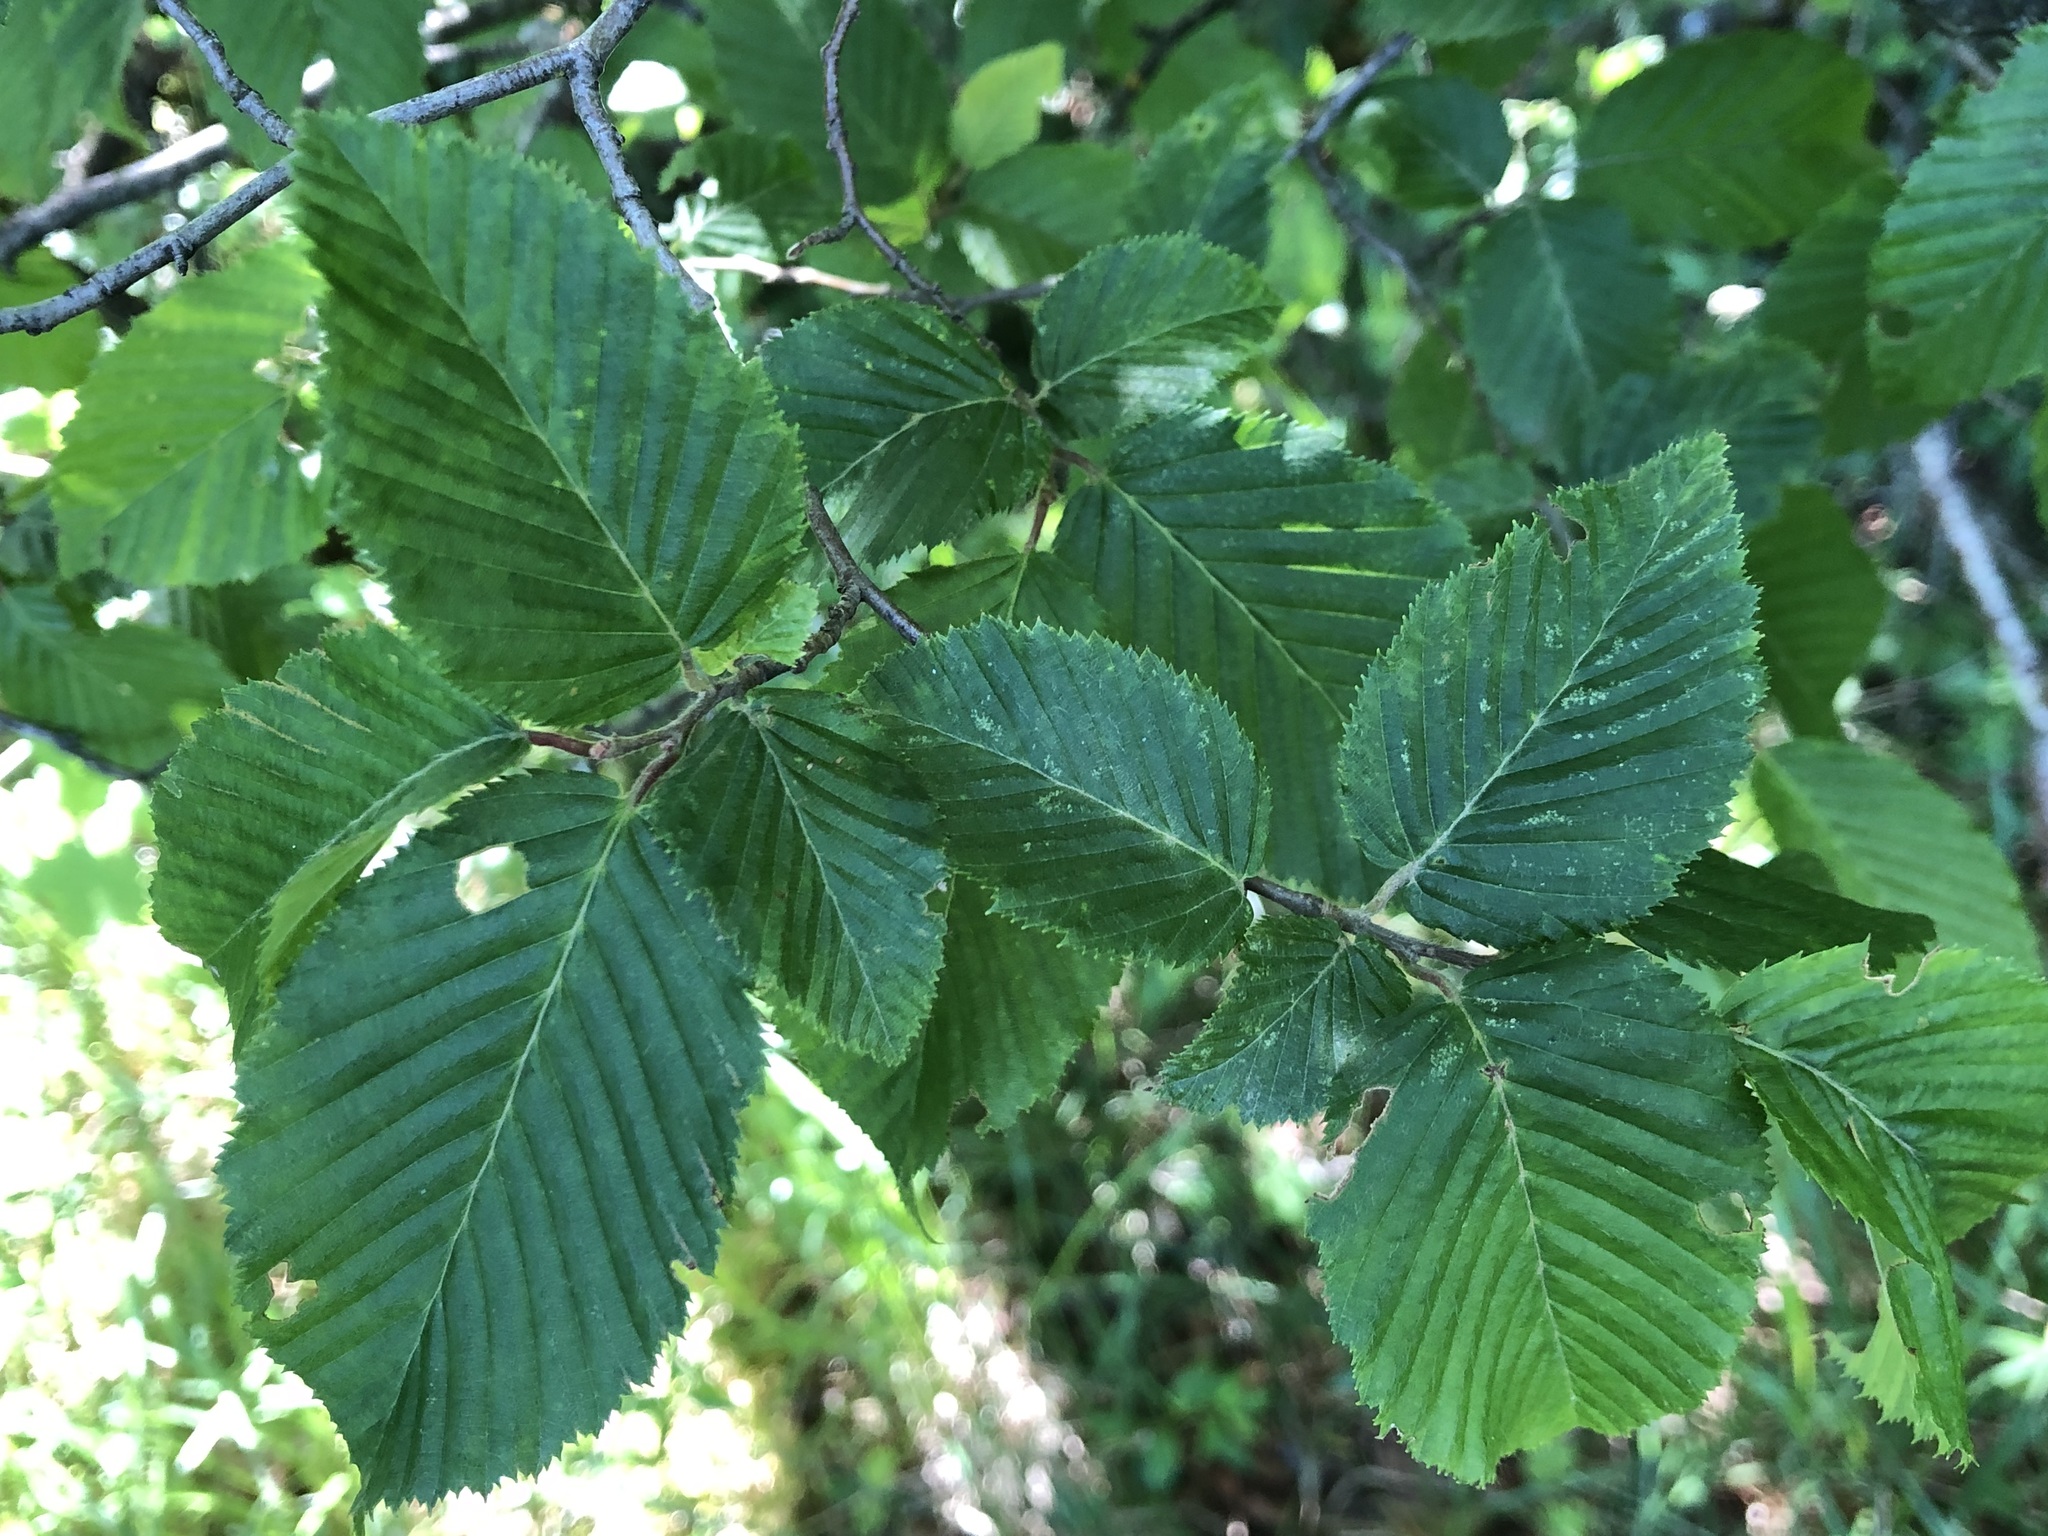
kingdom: Plantae
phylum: Tracheophyta
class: Magnoliopsida
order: Fagales
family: Betulaceae
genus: Carpinus
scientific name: Carpinus betulus
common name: Hornbeam
